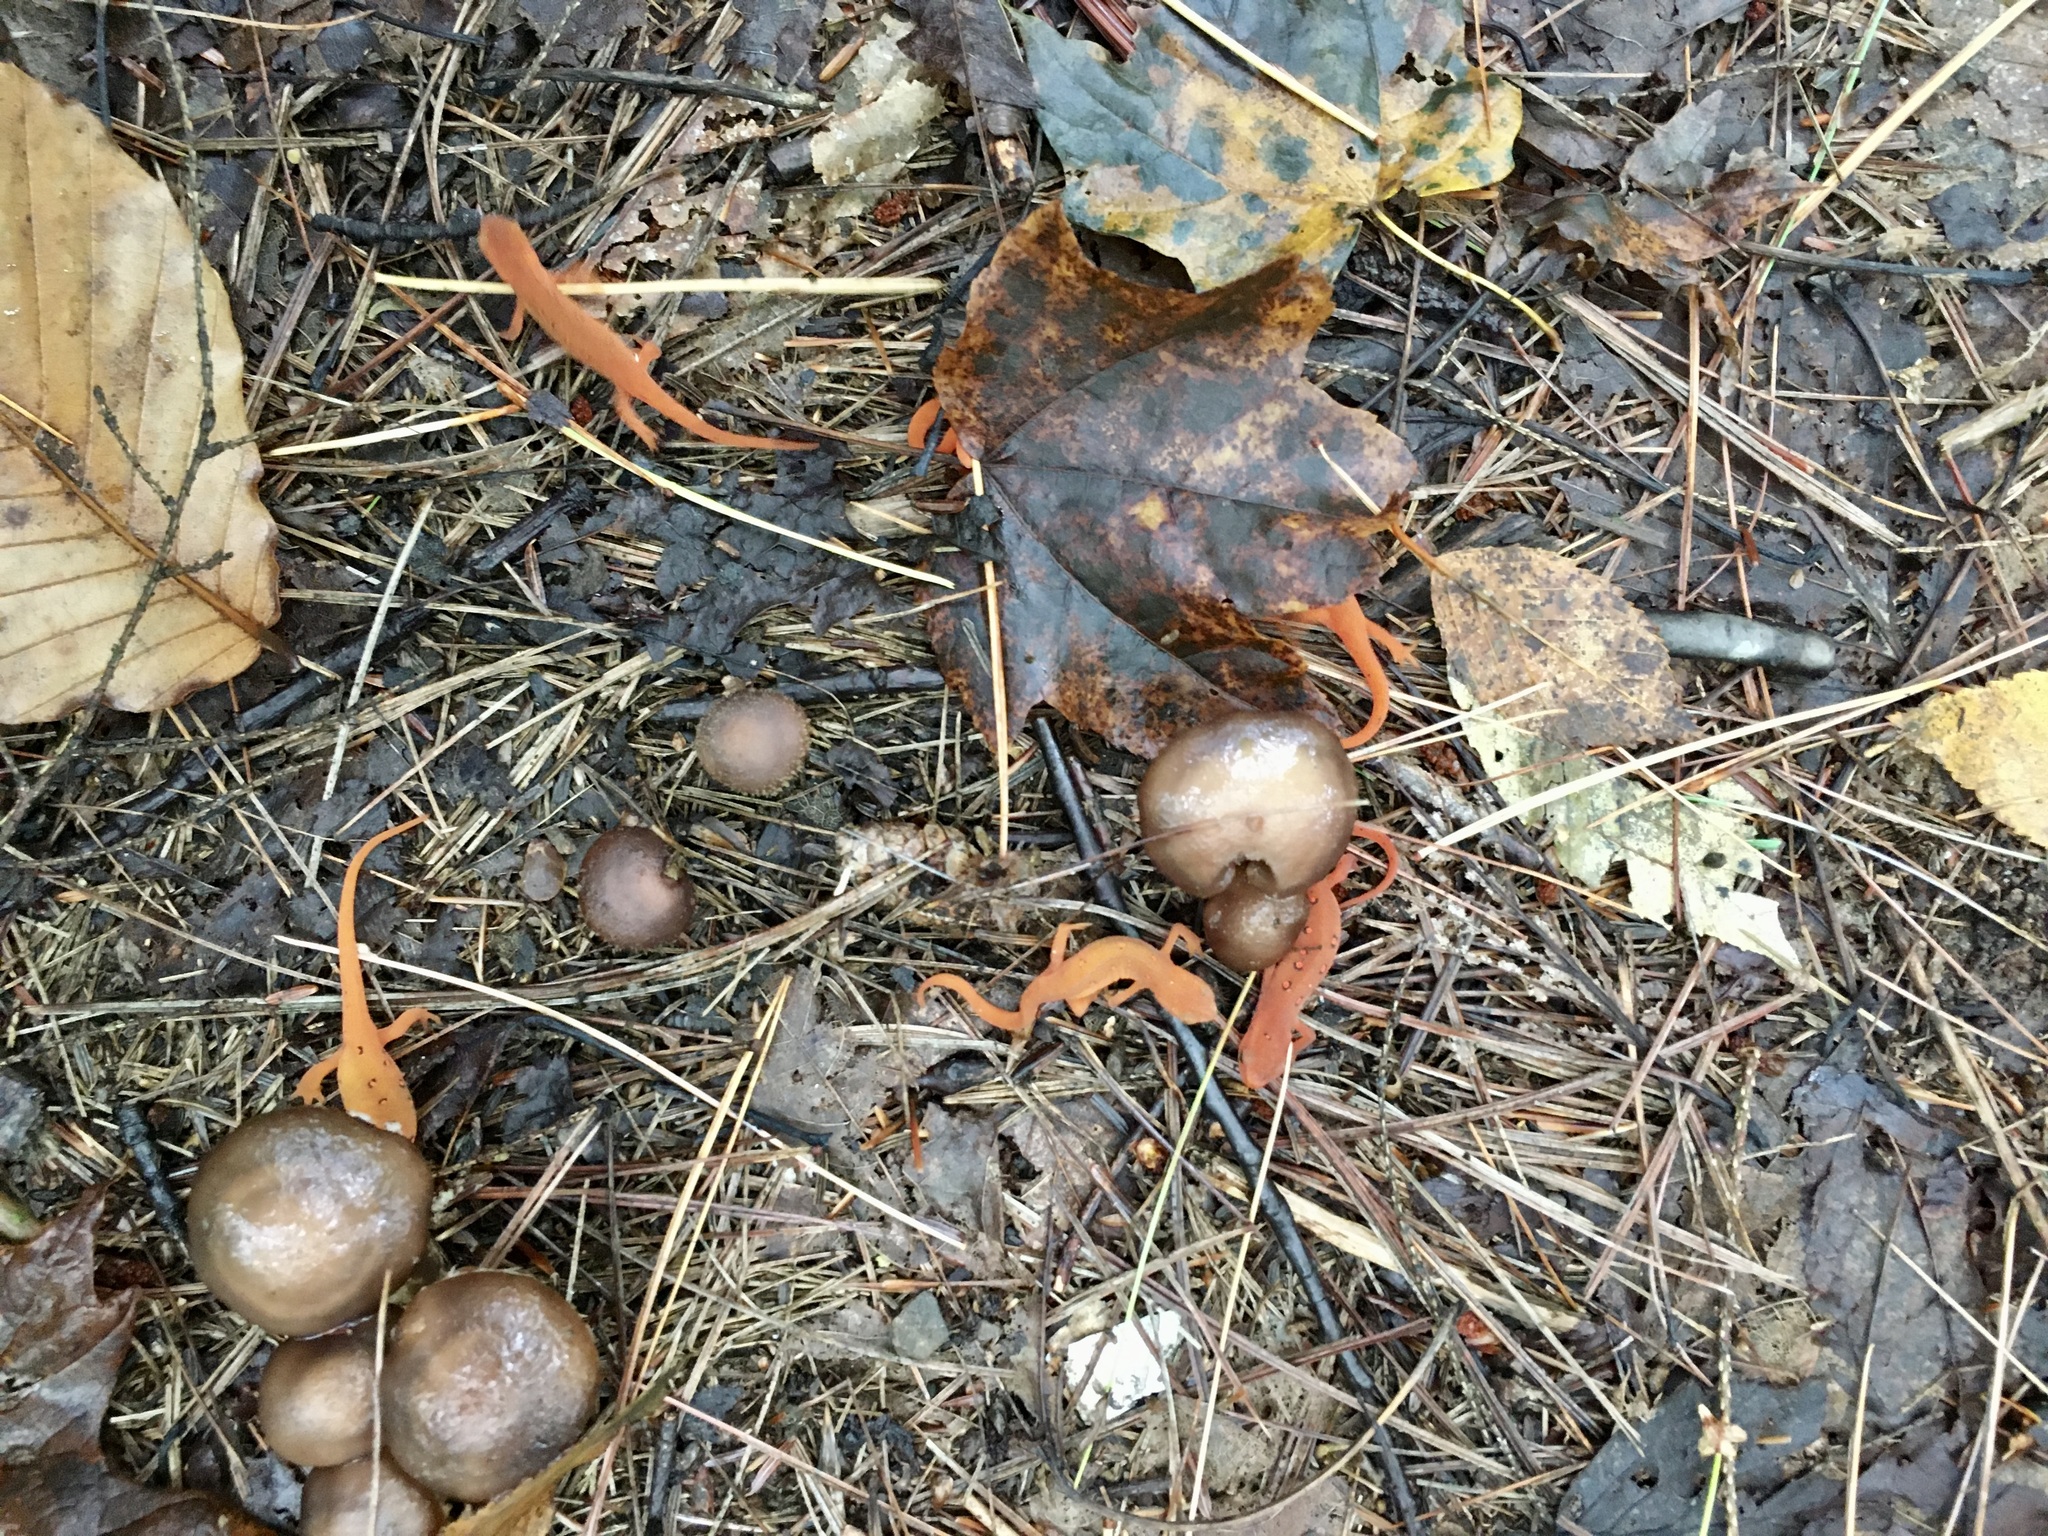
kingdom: Animalia
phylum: Chordata
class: Amphibia
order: Caudata
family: Salamandridae
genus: Notophthalmus
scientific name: Notophthalmus viridescens
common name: Eastern newt
